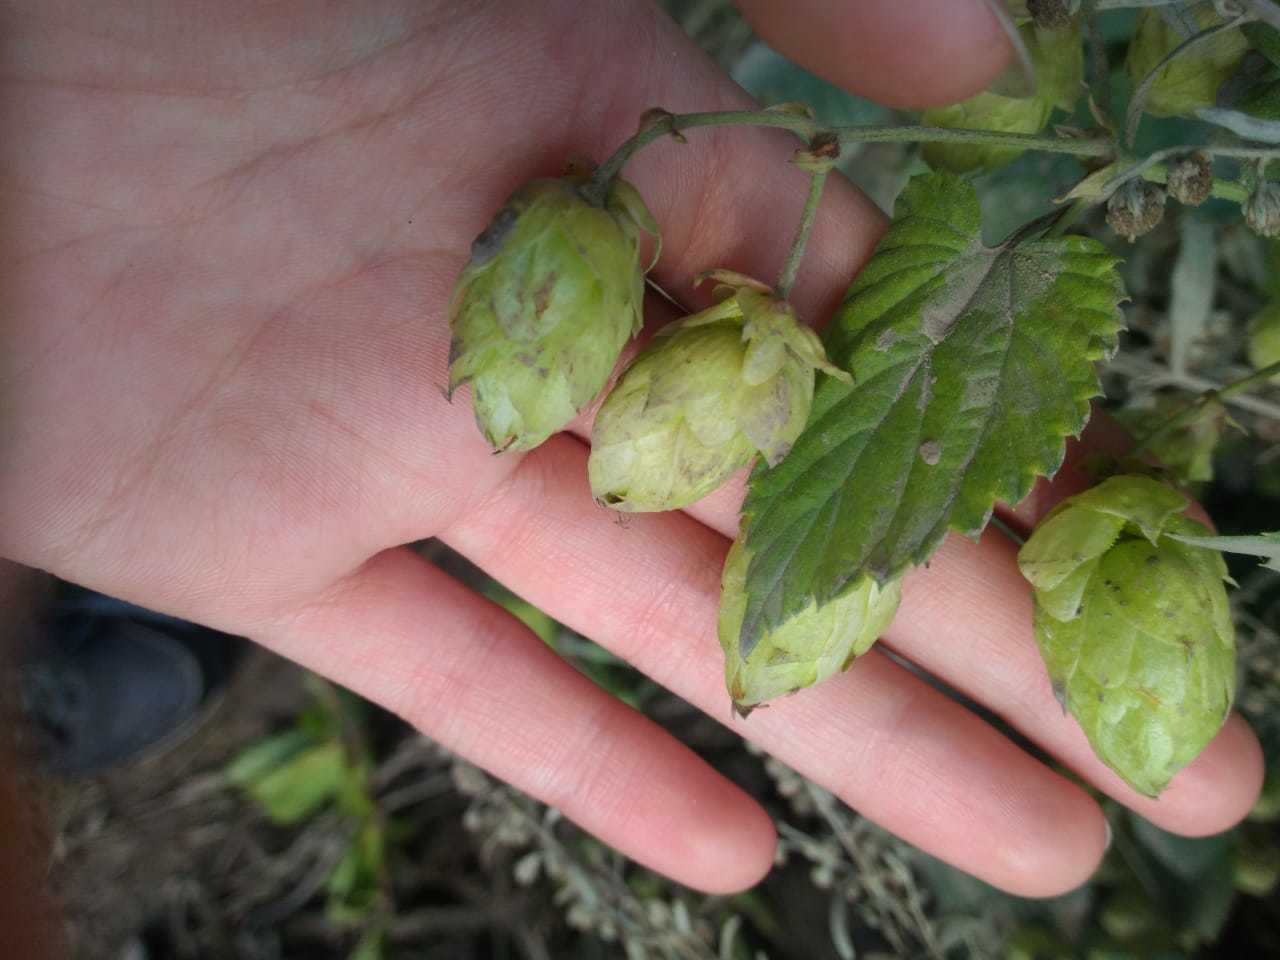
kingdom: Plantae
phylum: Tracheophyta
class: Magnoliopsida
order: Rosales
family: Cannabaceae
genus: Humulus
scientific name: Humulus lupulus
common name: Hop
